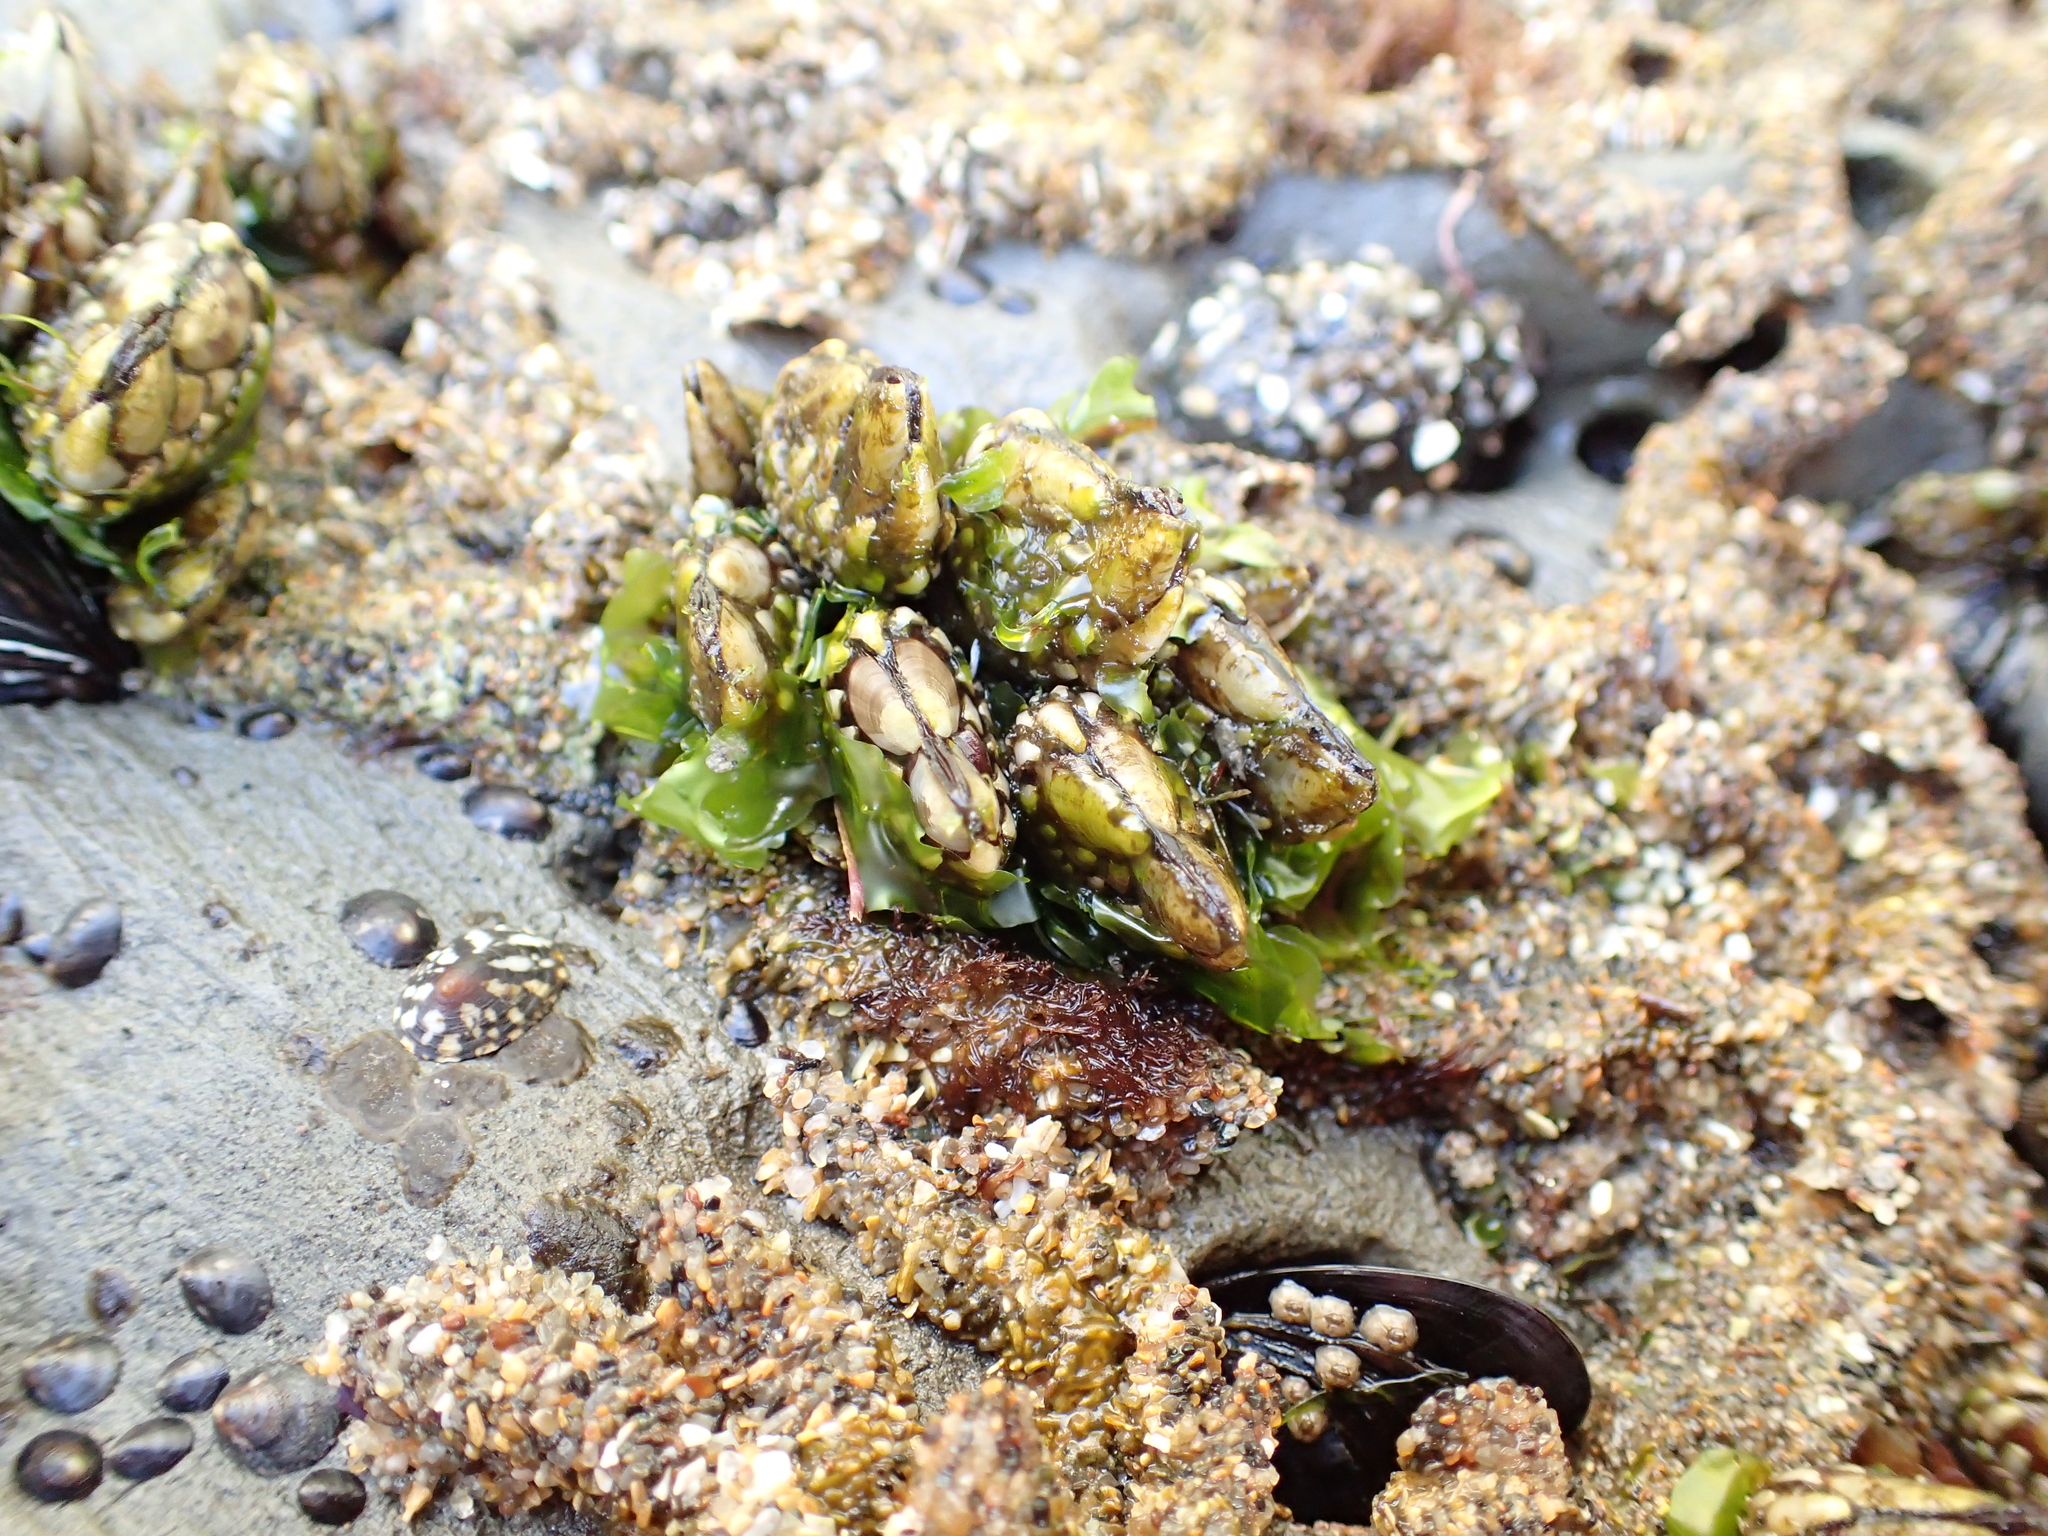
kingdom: Animalia
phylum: Arthropoda
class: Maxillopoda
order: Pedunculata
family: Pollicipedidae
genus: Pollicipes
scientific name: Pollicipes polymerus
